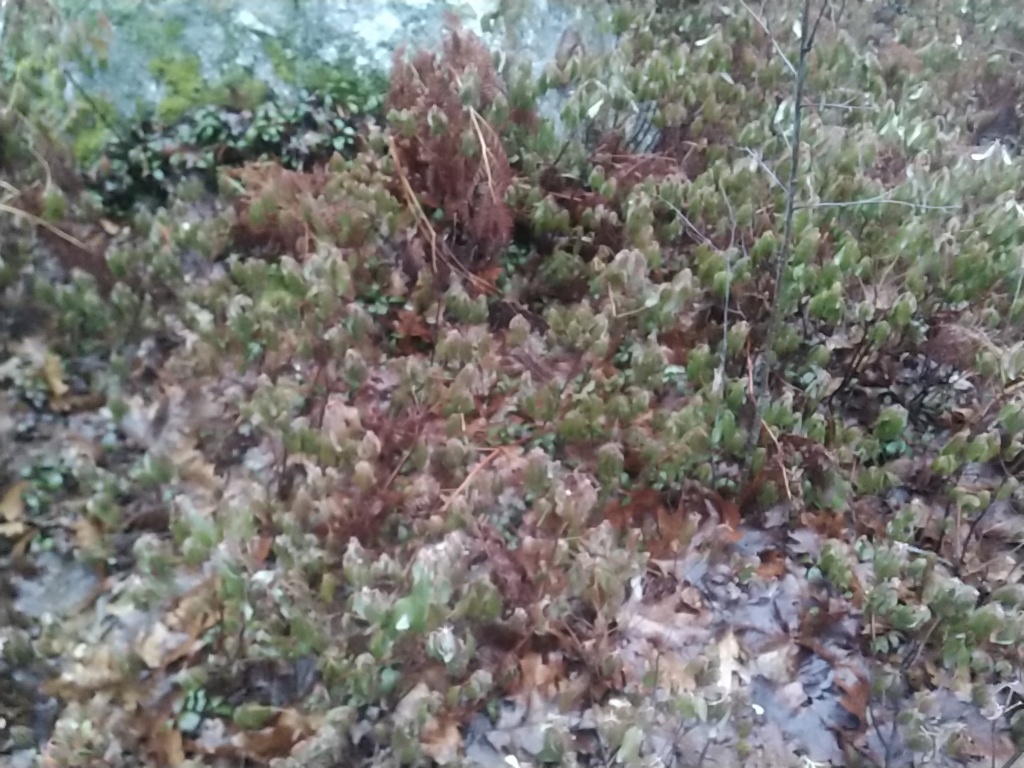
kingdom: Plantae
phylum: Tracheophyta
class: Magnoliopsida
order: Ericales
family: Ericaceae
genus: Kalmia
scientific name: Kalmia angustifolia
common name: Sheep-laurel
